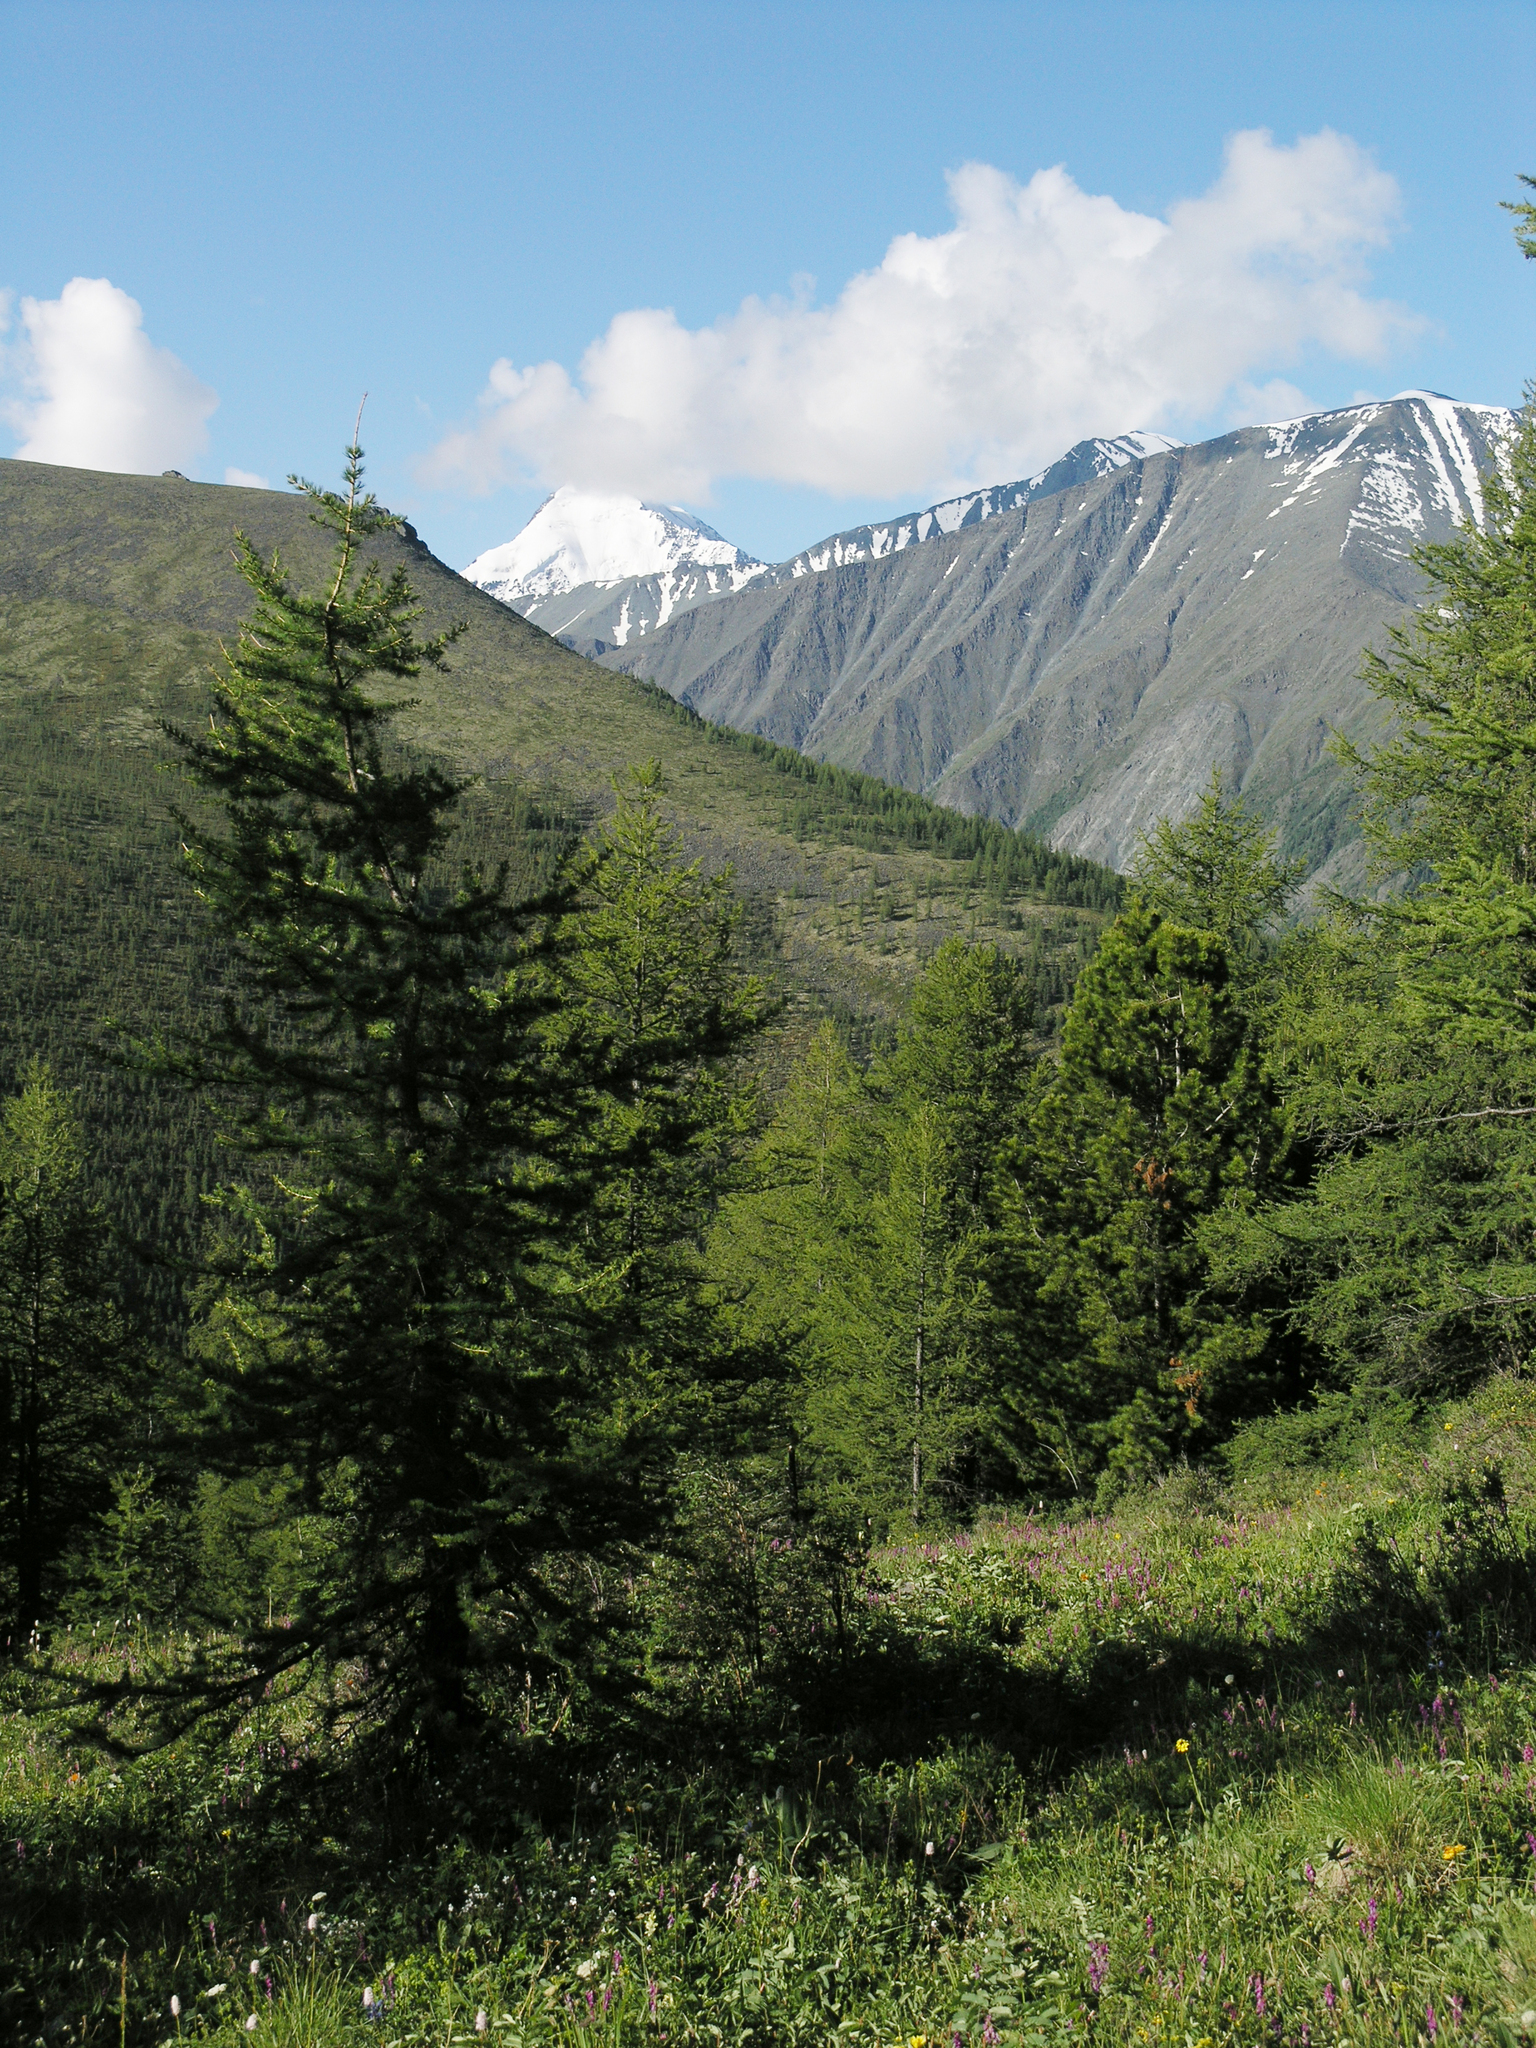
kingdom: Plantae
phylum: Tracheophyta
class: Pinopsida
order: Pinales
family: Pinaceae
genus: Larix
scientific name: Larix sibirica
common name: Siberian larch
